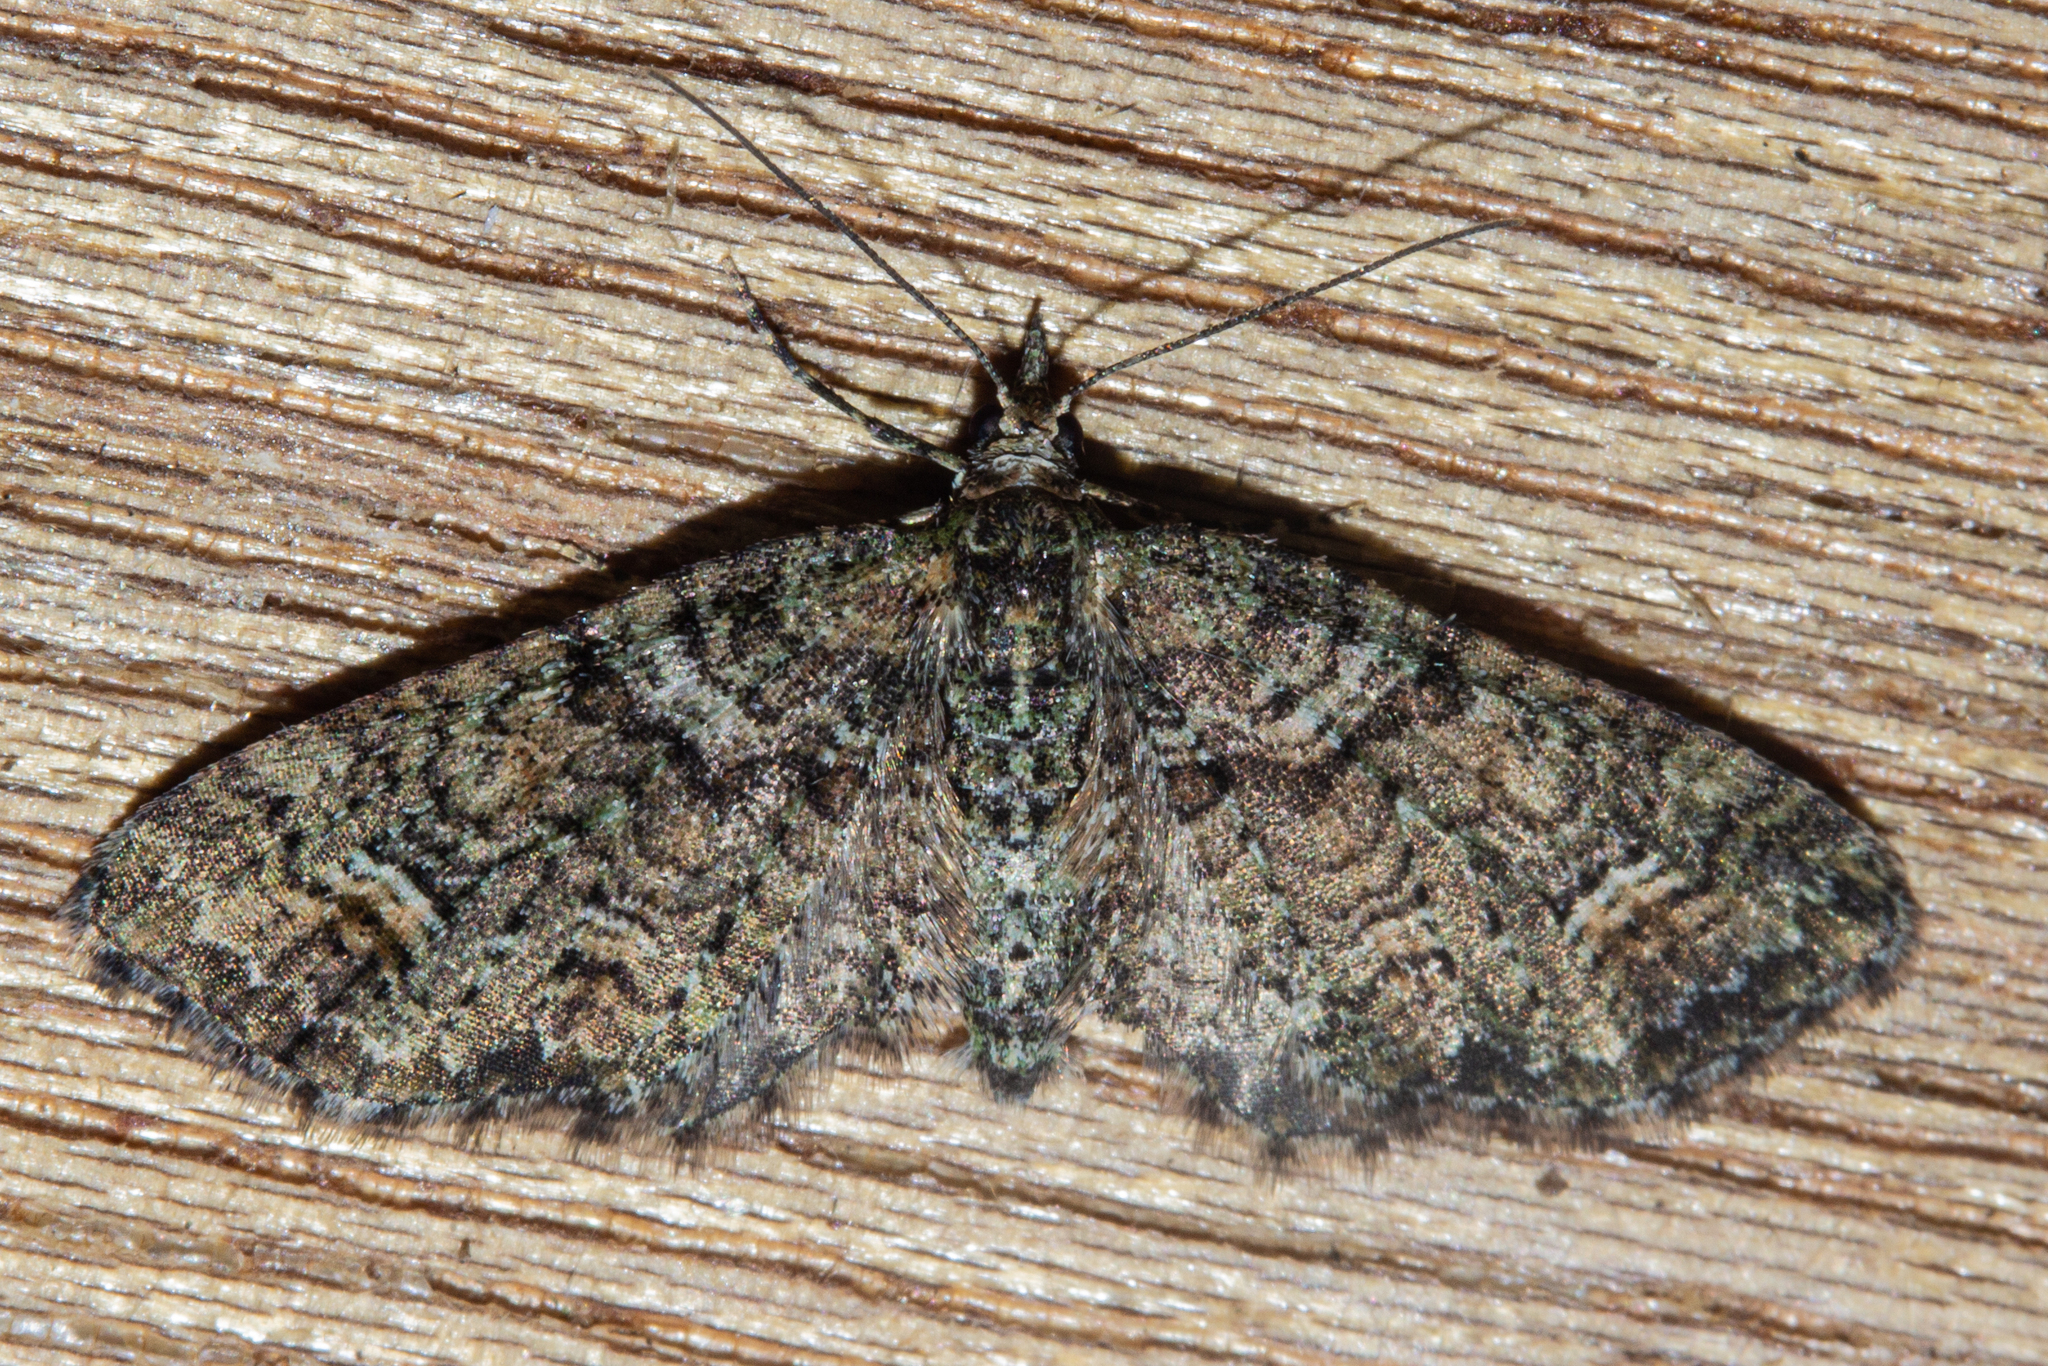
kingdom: Animalia
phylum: Arthropoda
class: Insecta
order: Lepidoptera
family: Geometridae
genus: Idaea
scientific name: Idaea mutanda
